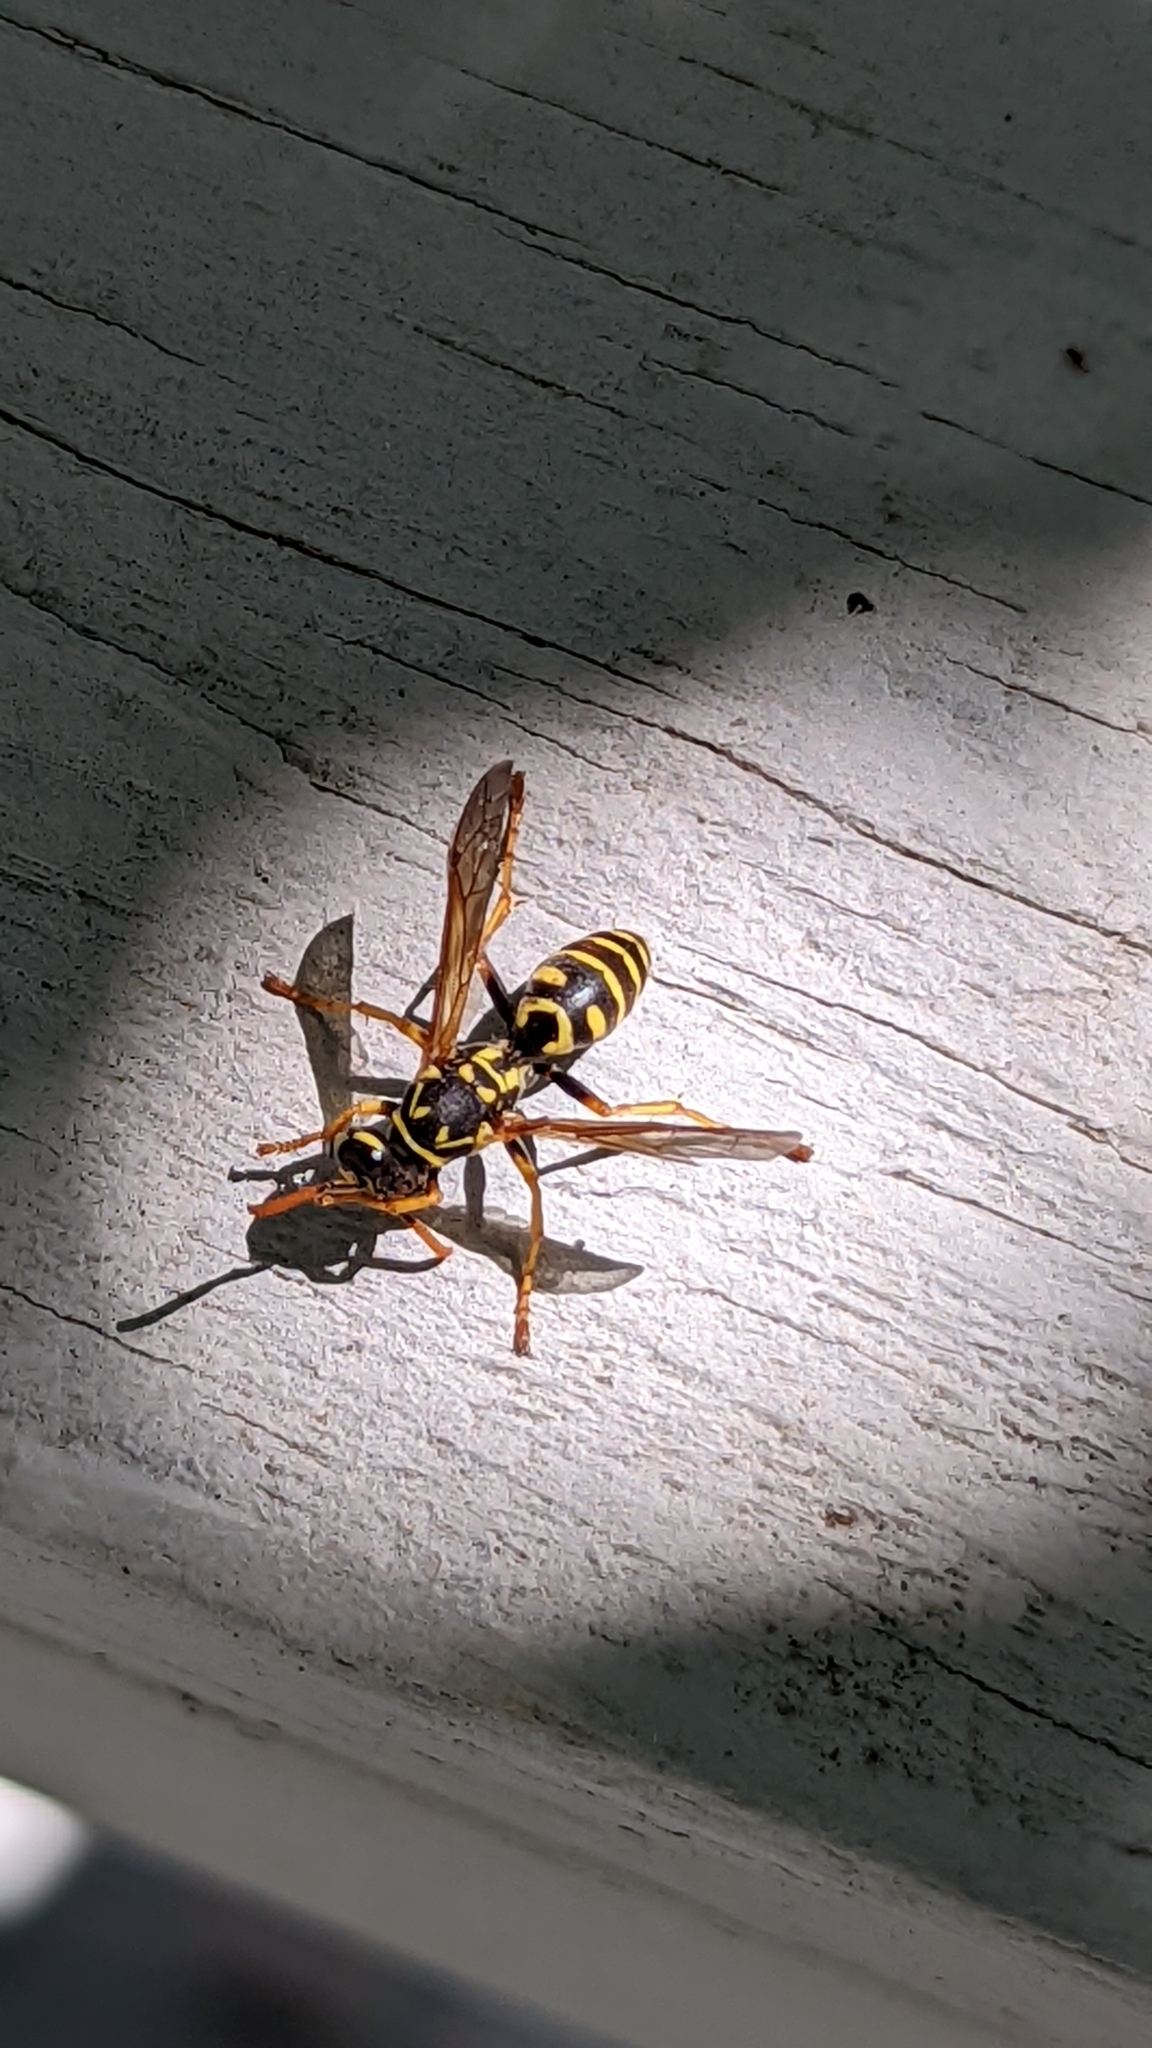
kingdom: Animalia
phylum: Arthropoda
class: Insecta
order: Hymenoptera
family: Eumenidae
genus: Polistes
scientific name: Polistes dominula
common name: Paper wasp
